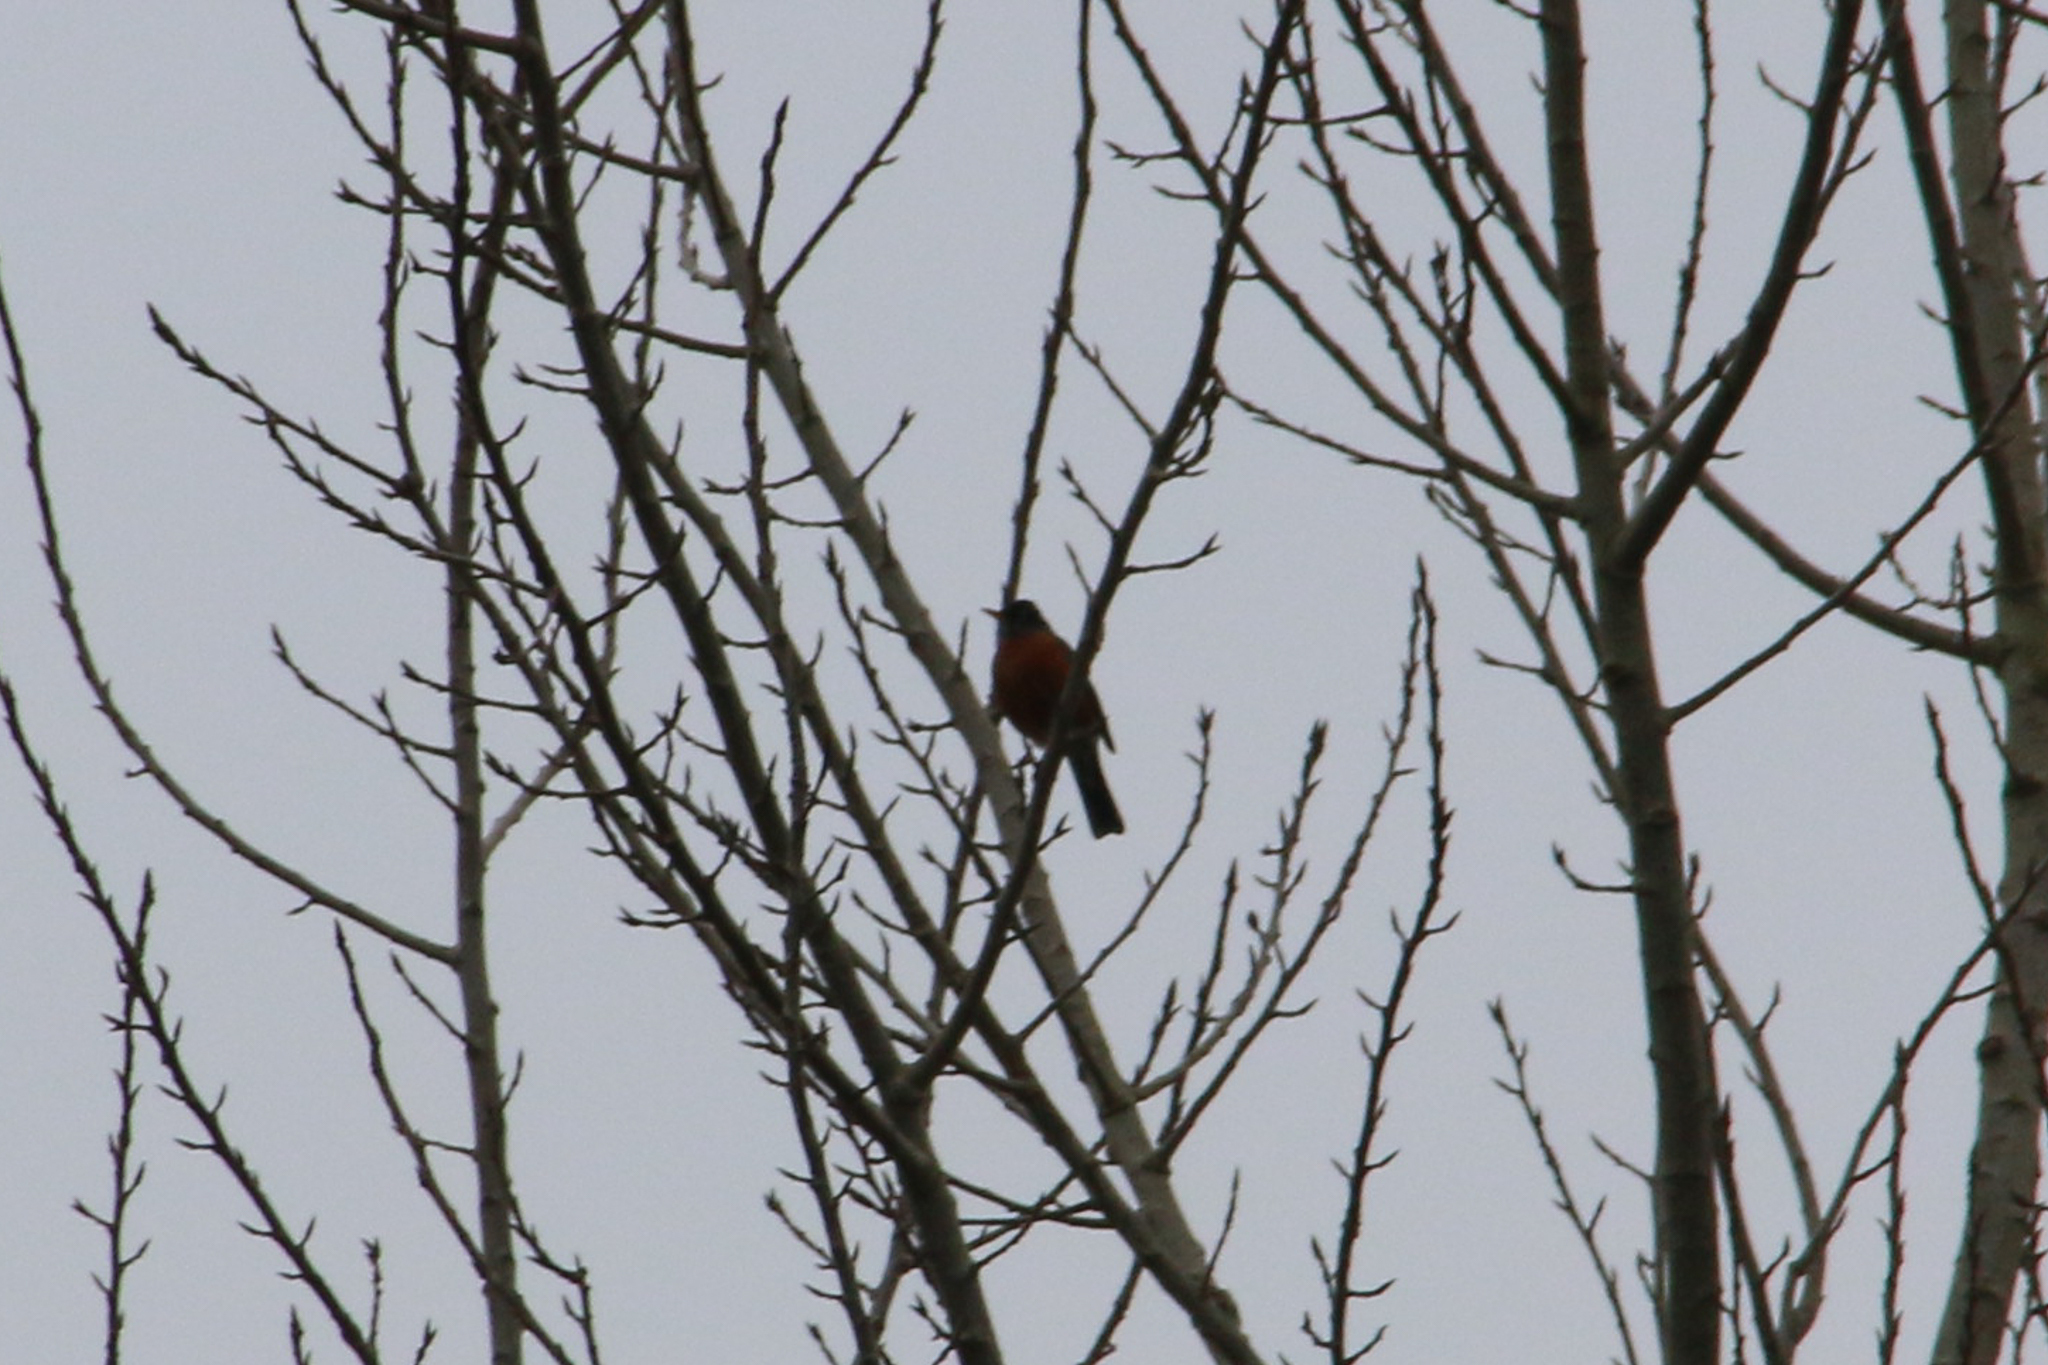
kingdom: Animalia
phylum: Chordata
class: Aves
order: Passeriformes
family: Turdidae
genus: Turdus
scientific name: Turdus migratorius
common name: American robin
